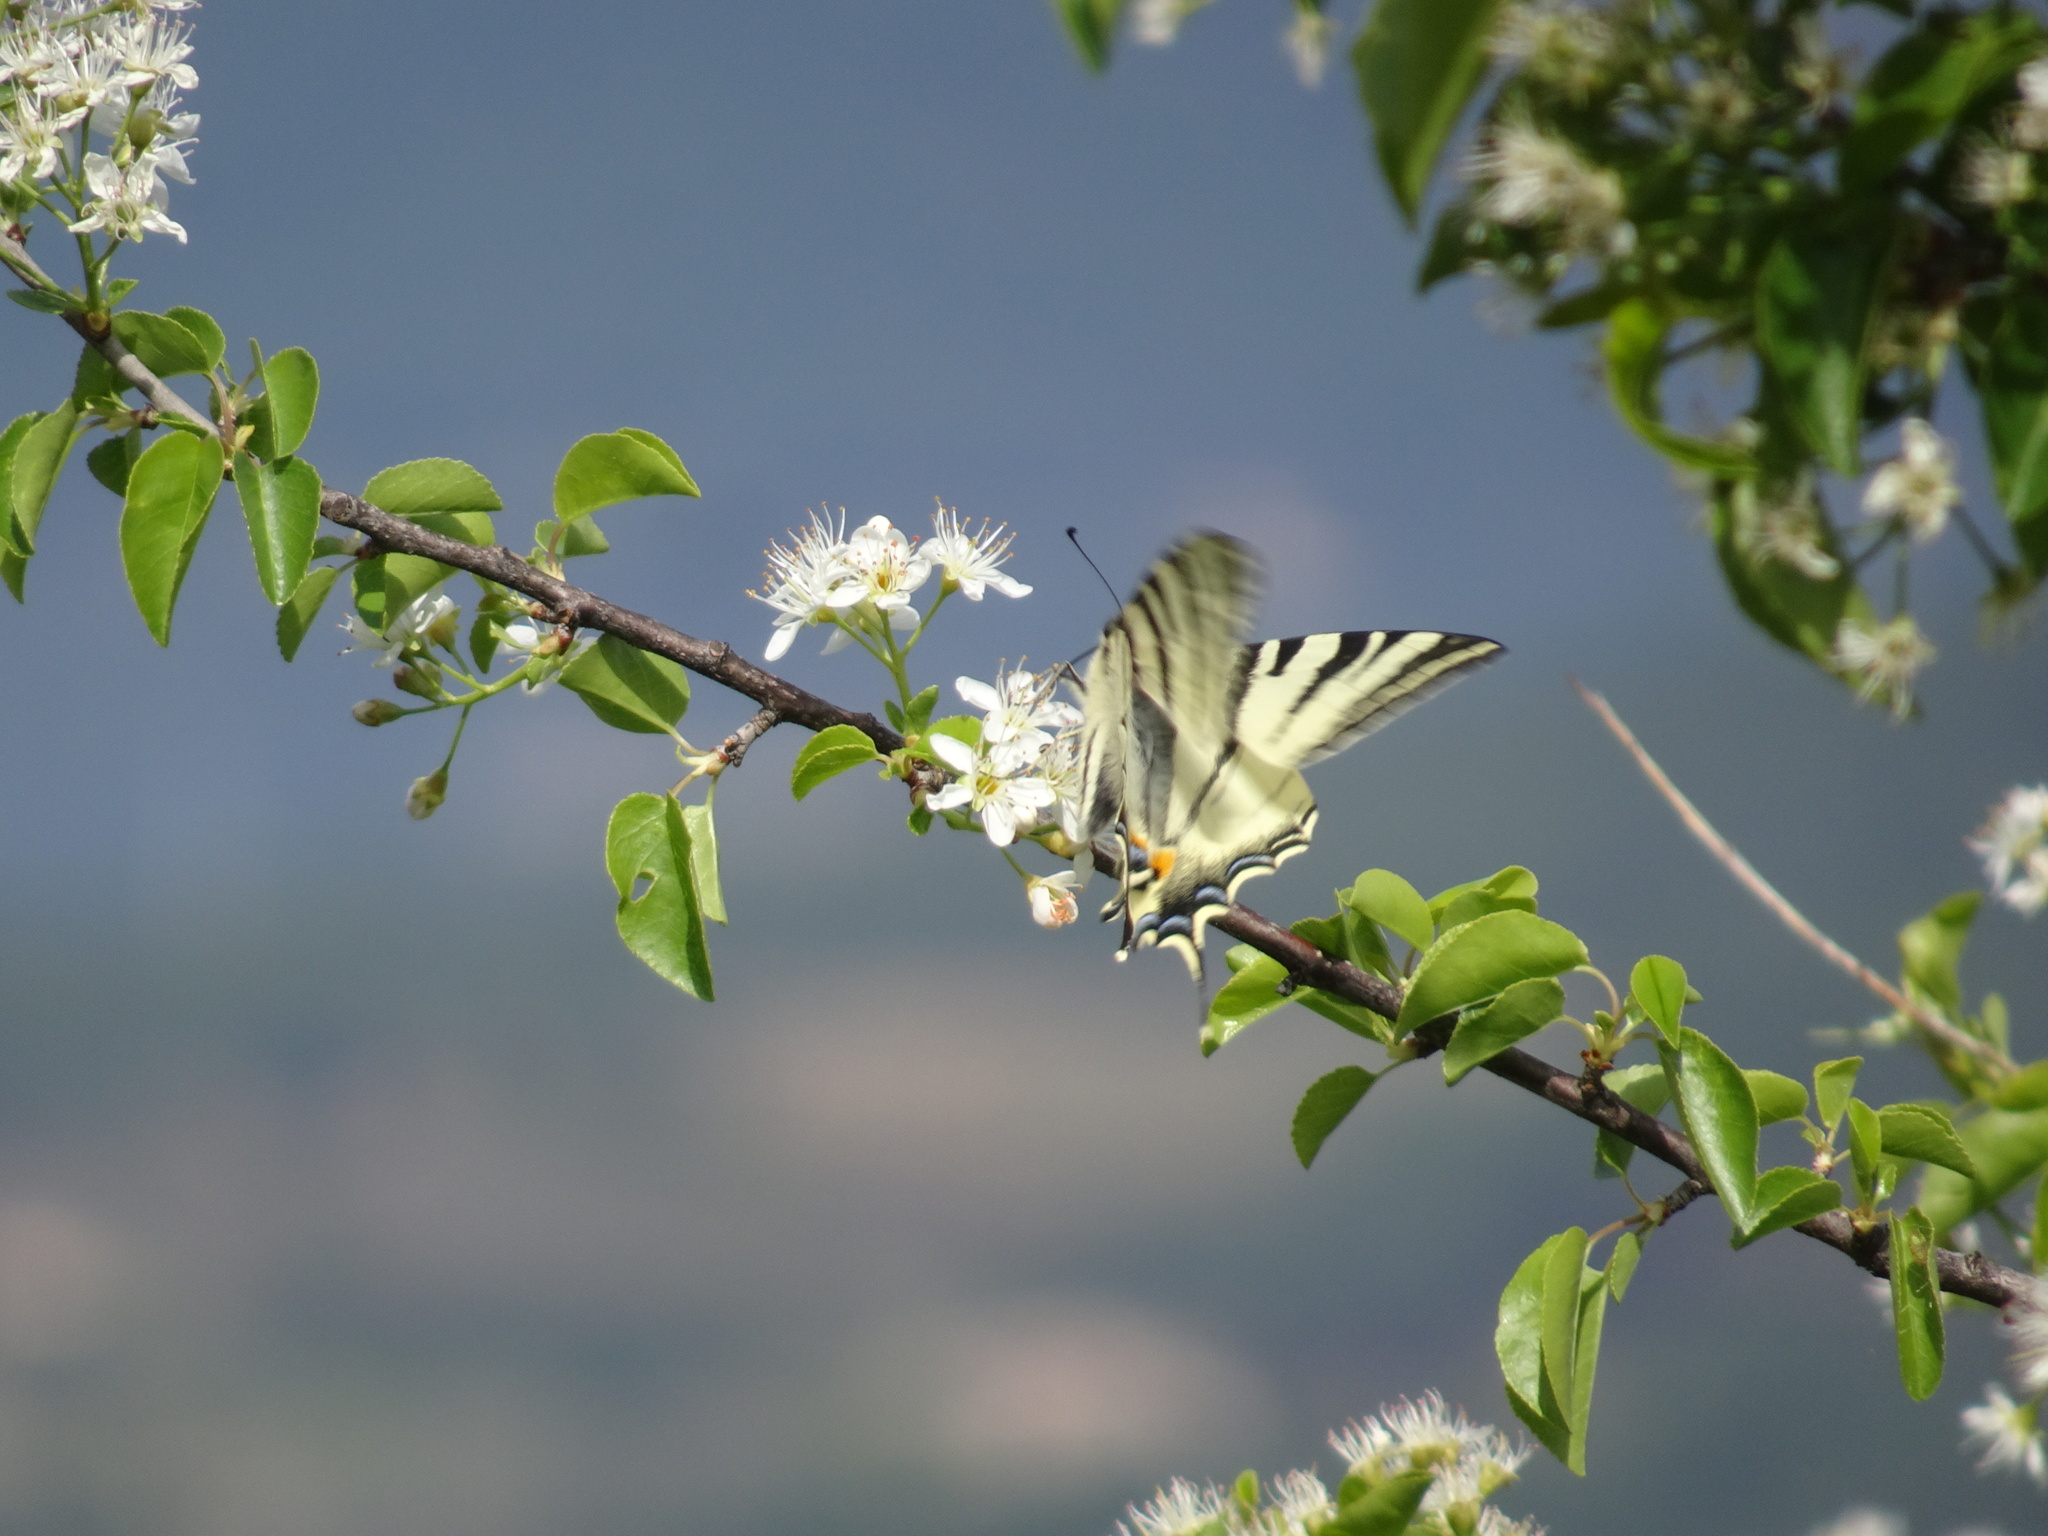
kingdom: Animalia
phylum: Arthropoda
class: Insecta
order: Lepidoptera
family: Papilionidae
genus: Iphiclides
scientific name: Iphiclides podalirius
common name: Scarce swallowtail
